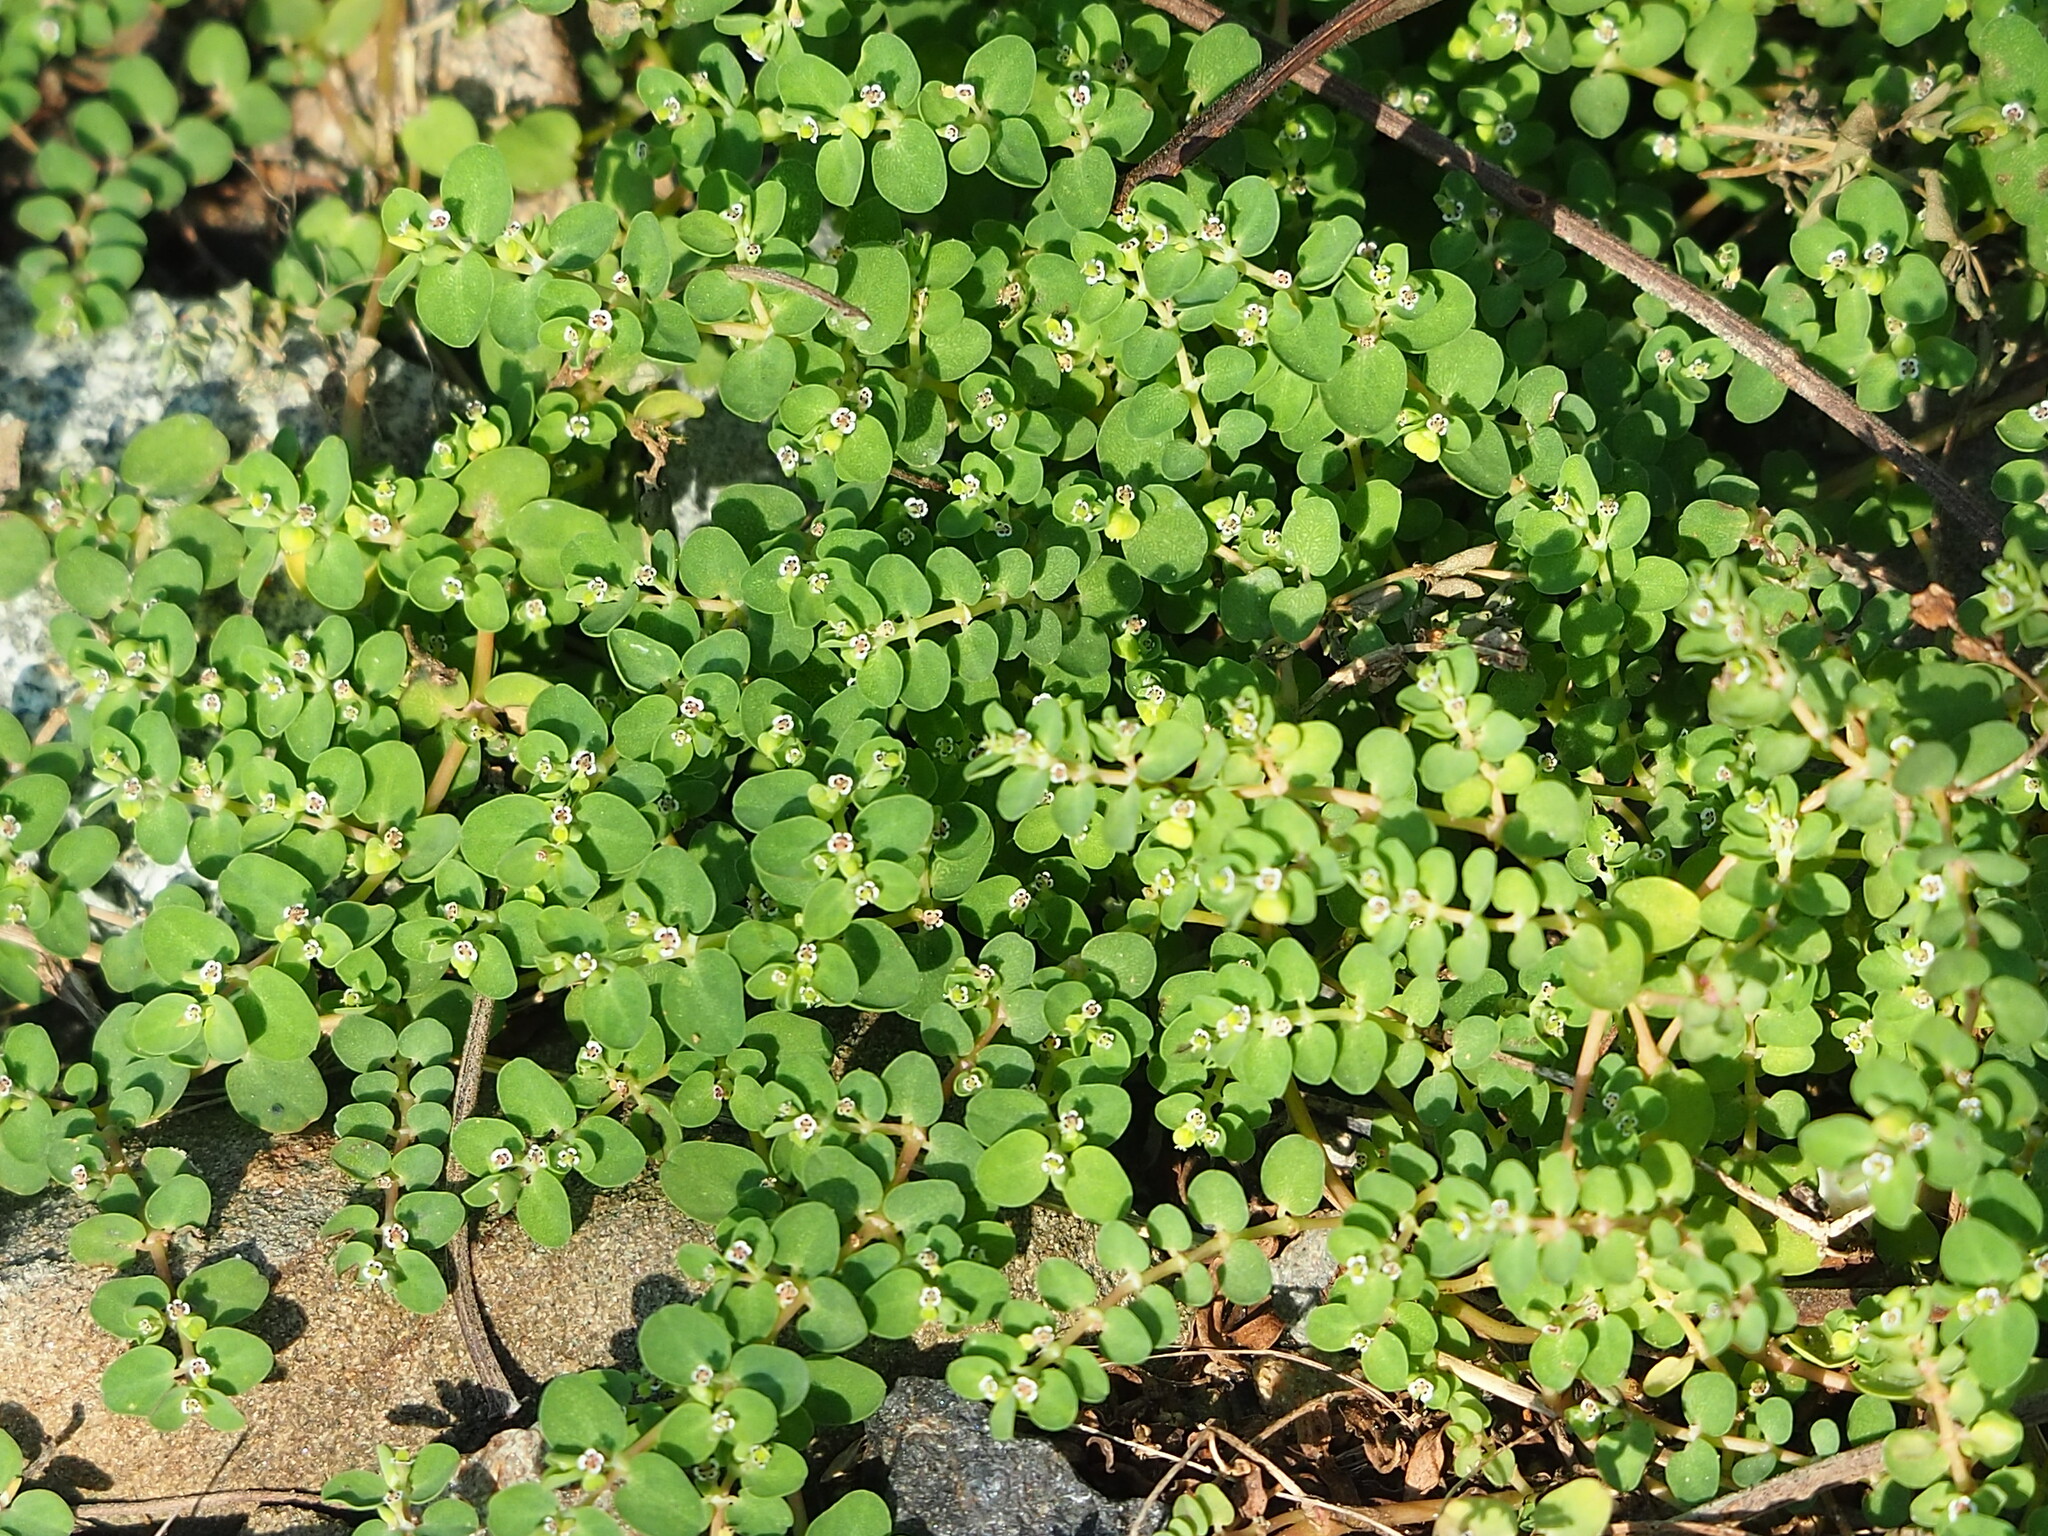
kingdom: Plantae
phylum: Tracheophyta
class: Magnoliopsida
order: Malpighiales
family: Euphorbiaceae
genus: Euphorbia
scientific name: Euphorbia serpens
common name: Matted sandmat
